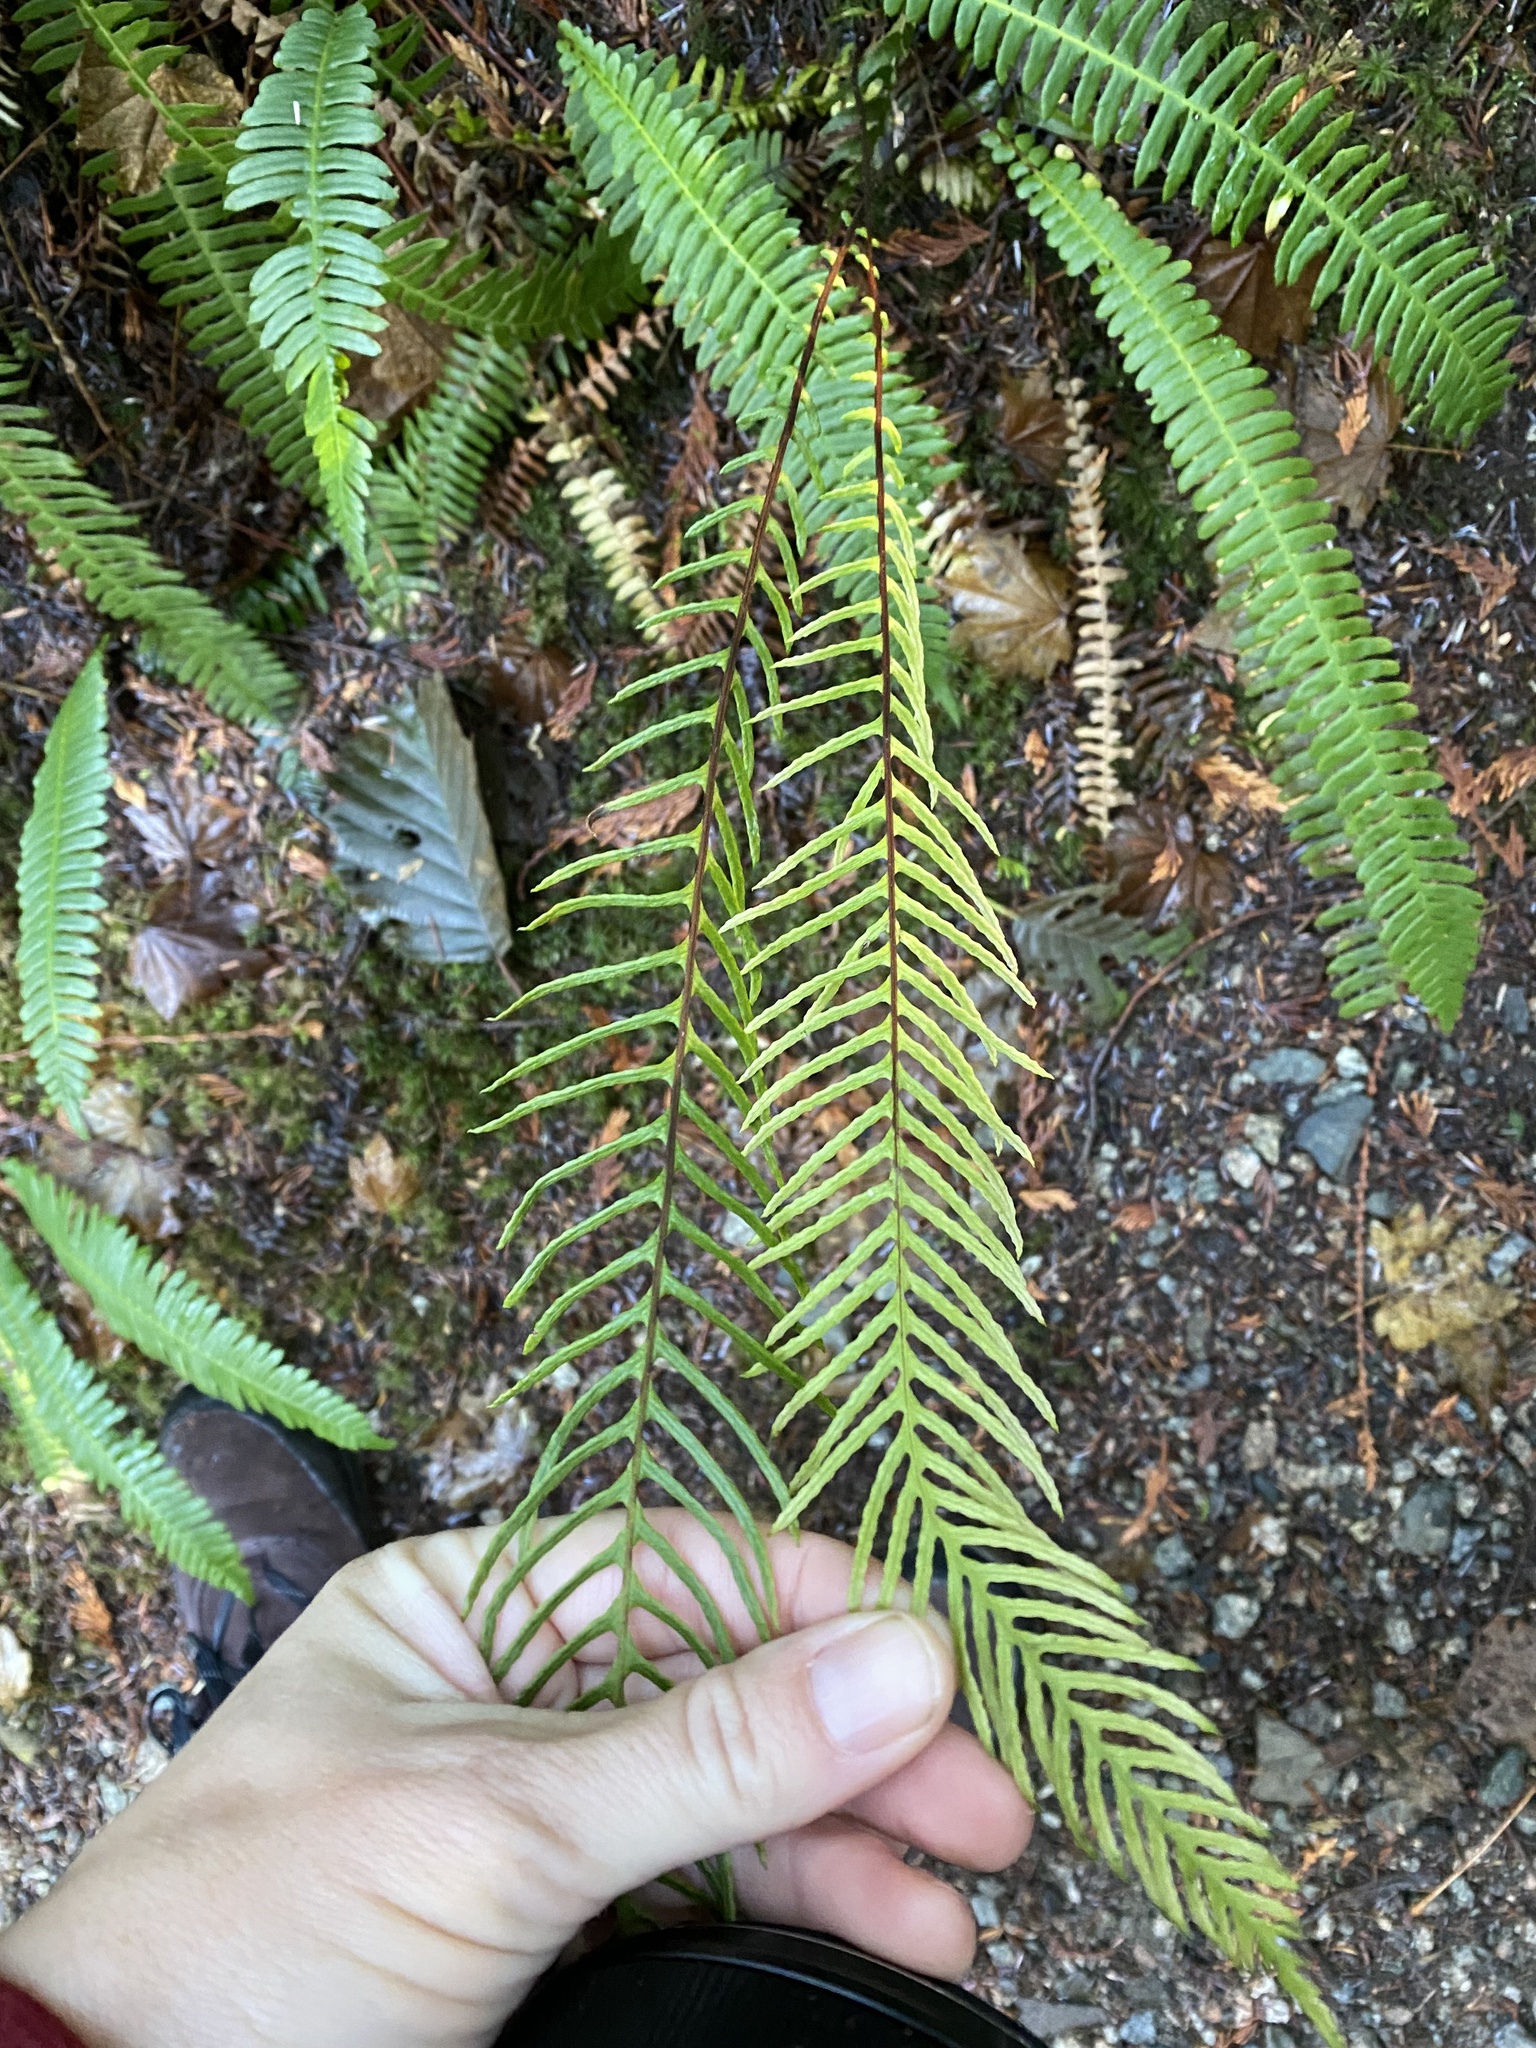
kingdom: Plantae
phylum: Tracheophyta
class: Polypodiopsida
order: Polypodiales
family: Blechnaceae
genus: Struthiopteris
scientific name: Struthiopteris spicant
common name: Deer fern
